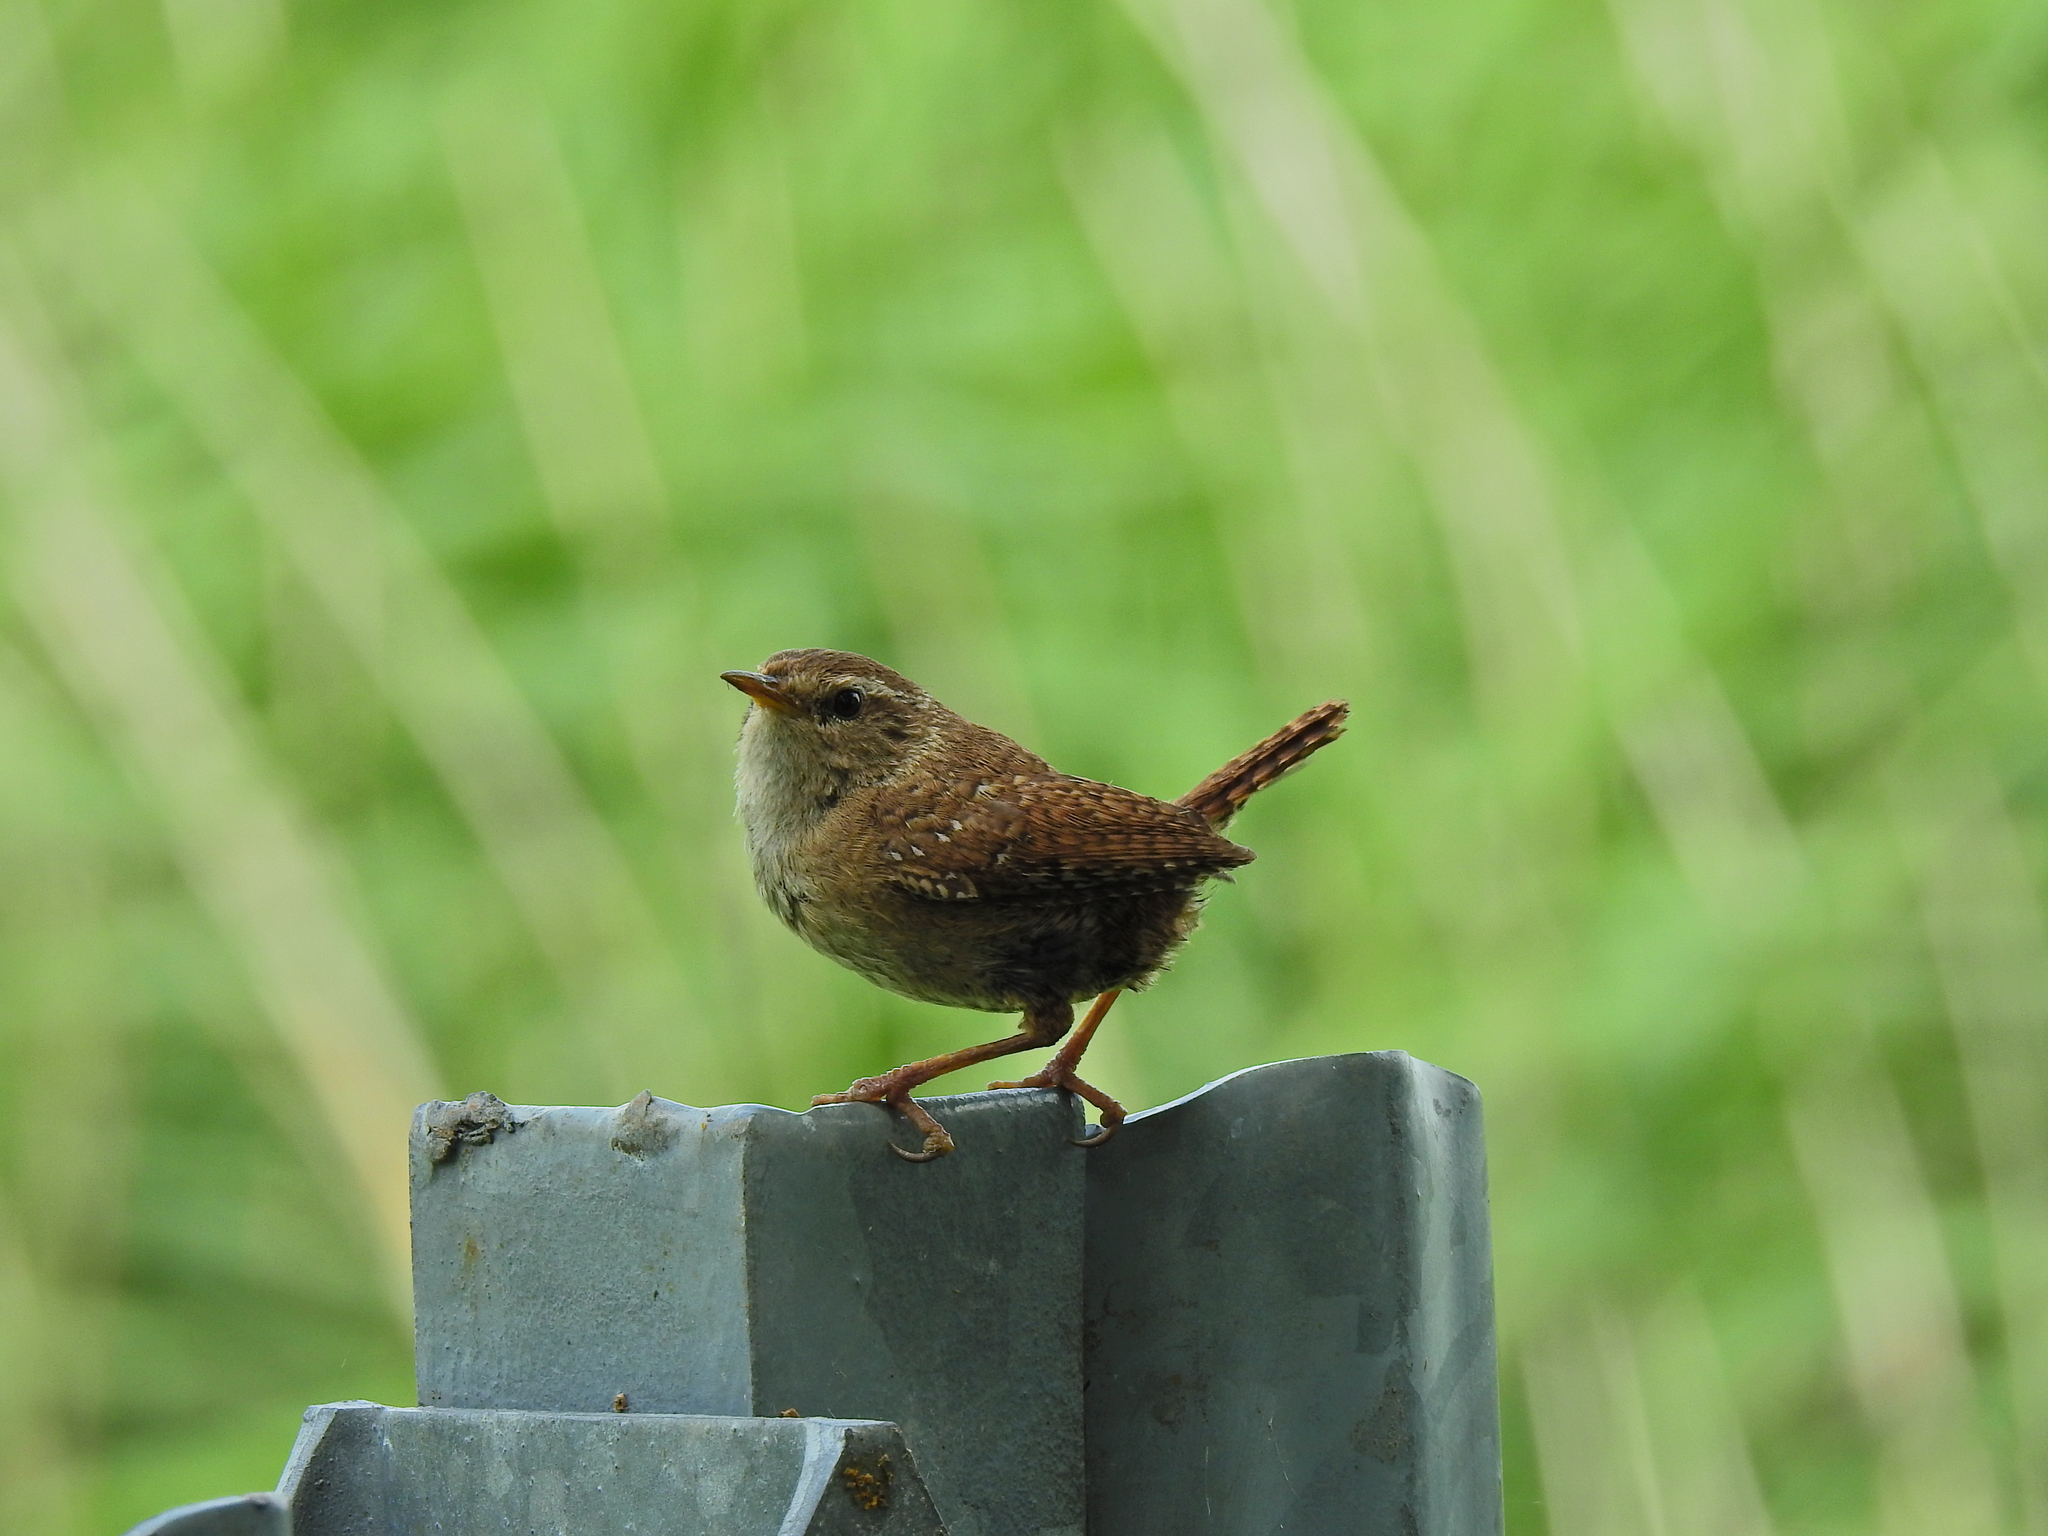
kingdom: Animalia
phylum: Chordata
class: Aves
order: Passeriformes
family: Troglodytidae
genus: Troglodytes
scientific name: Troglodytes troglodytes
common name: Eurasian wren
